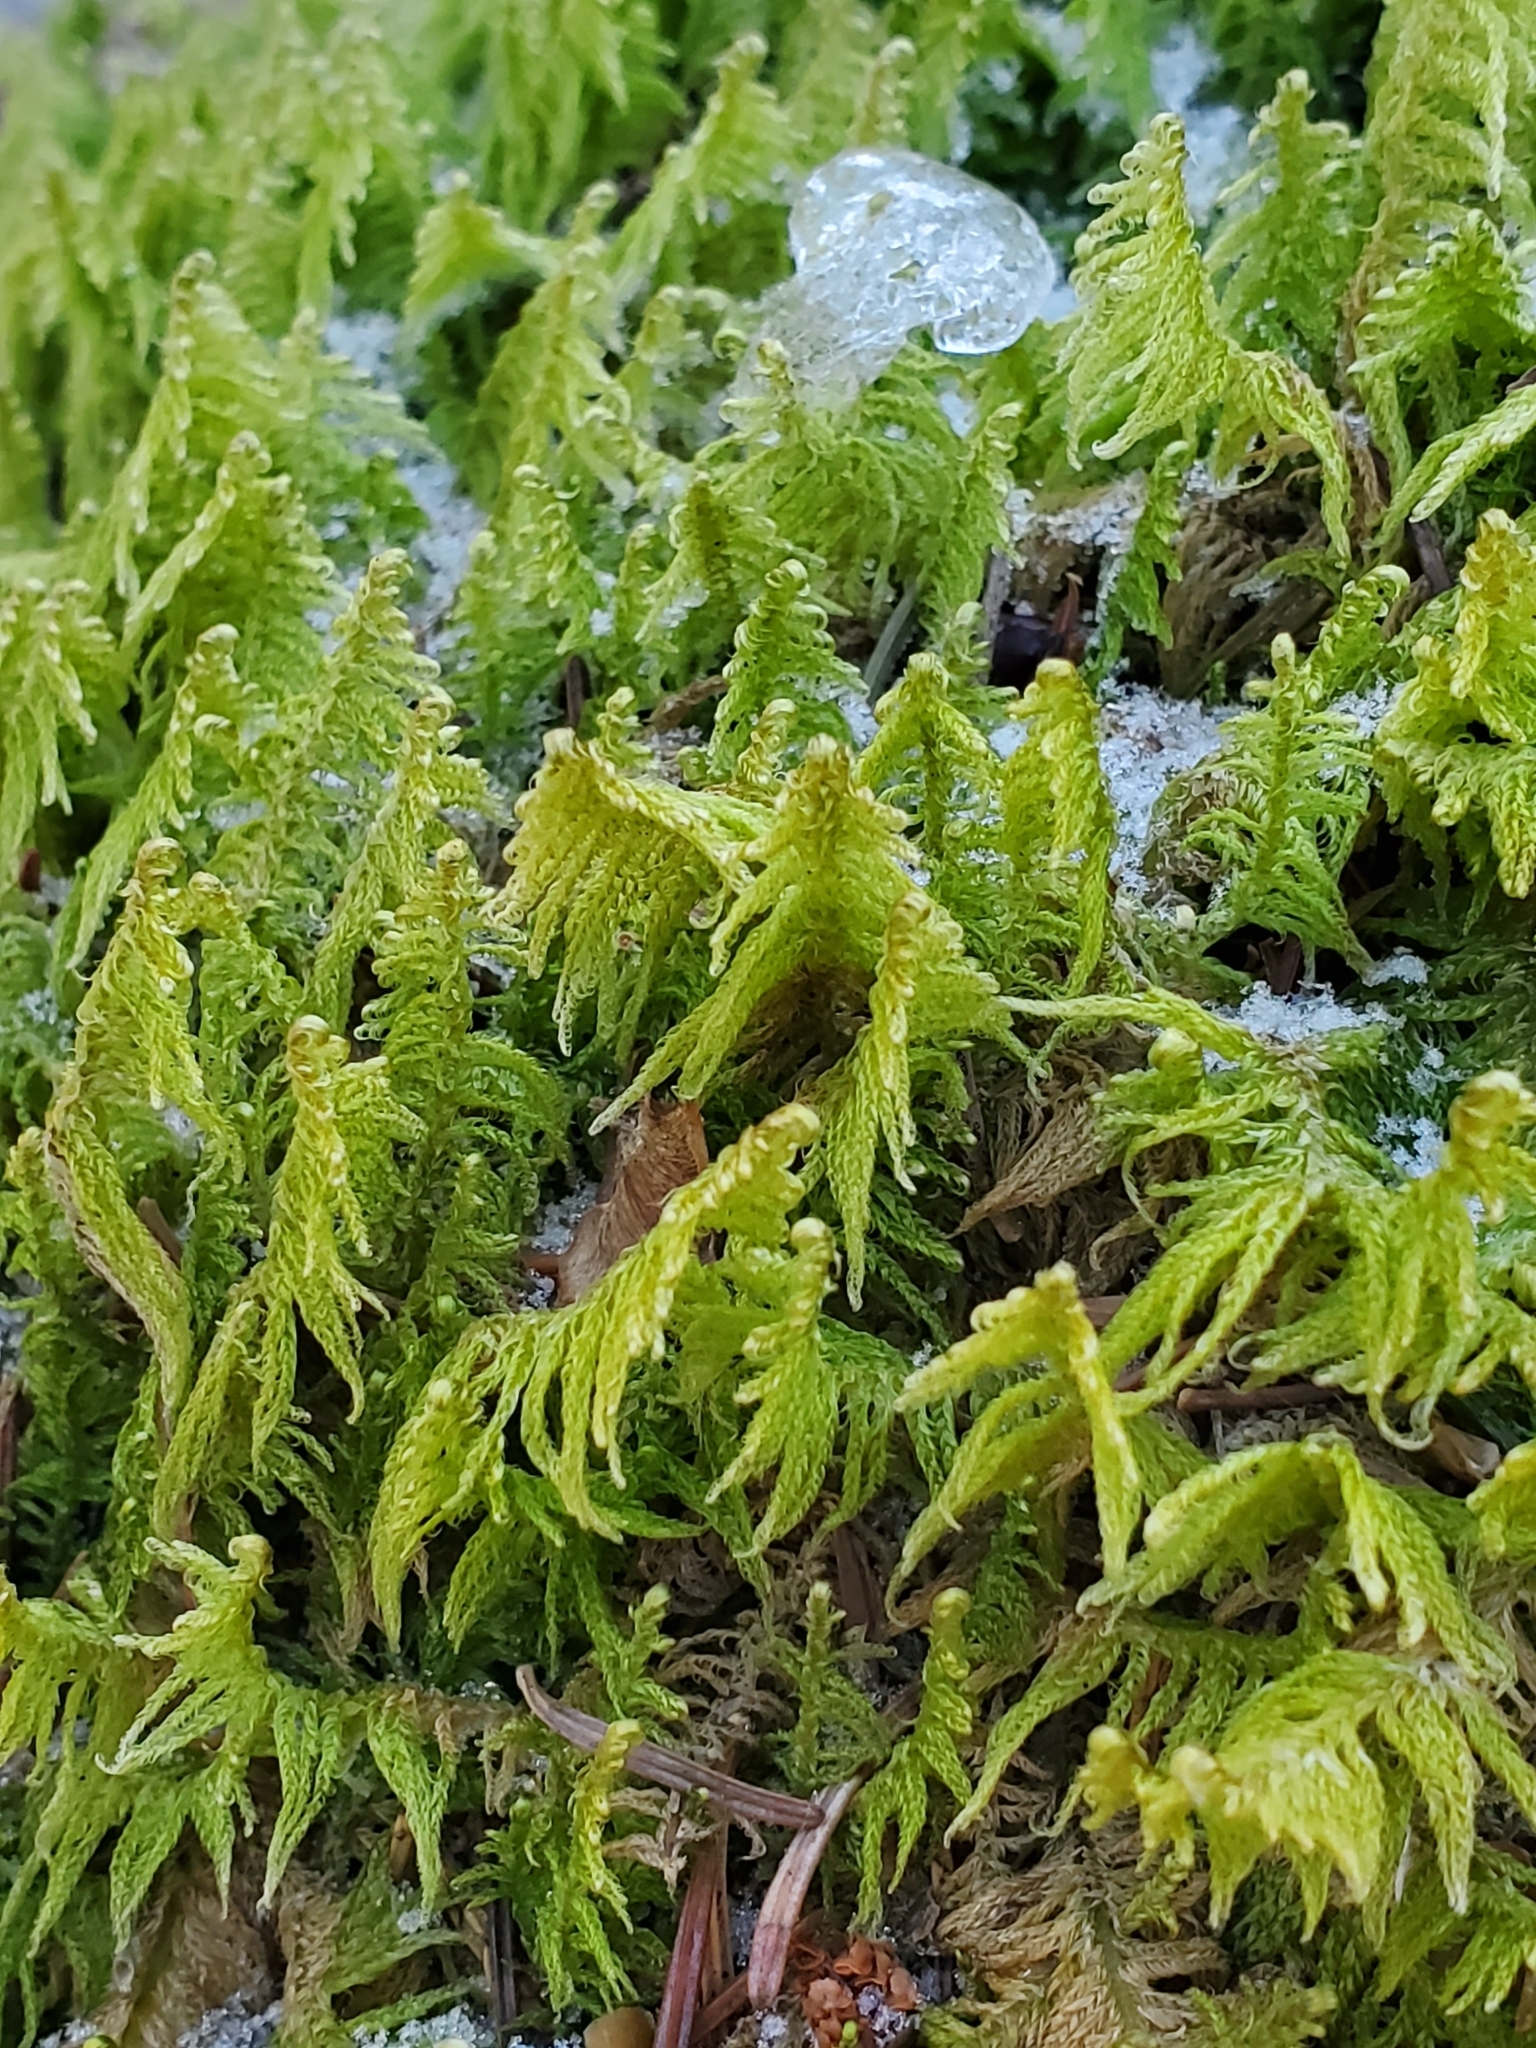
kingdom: Plantae
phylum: Bryophyta
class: Bryopsida
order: Hypnales
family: Pylaisiaceae
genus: Ptilium
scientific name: Ptilium crista-castrensis
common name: Knight's plume moss
